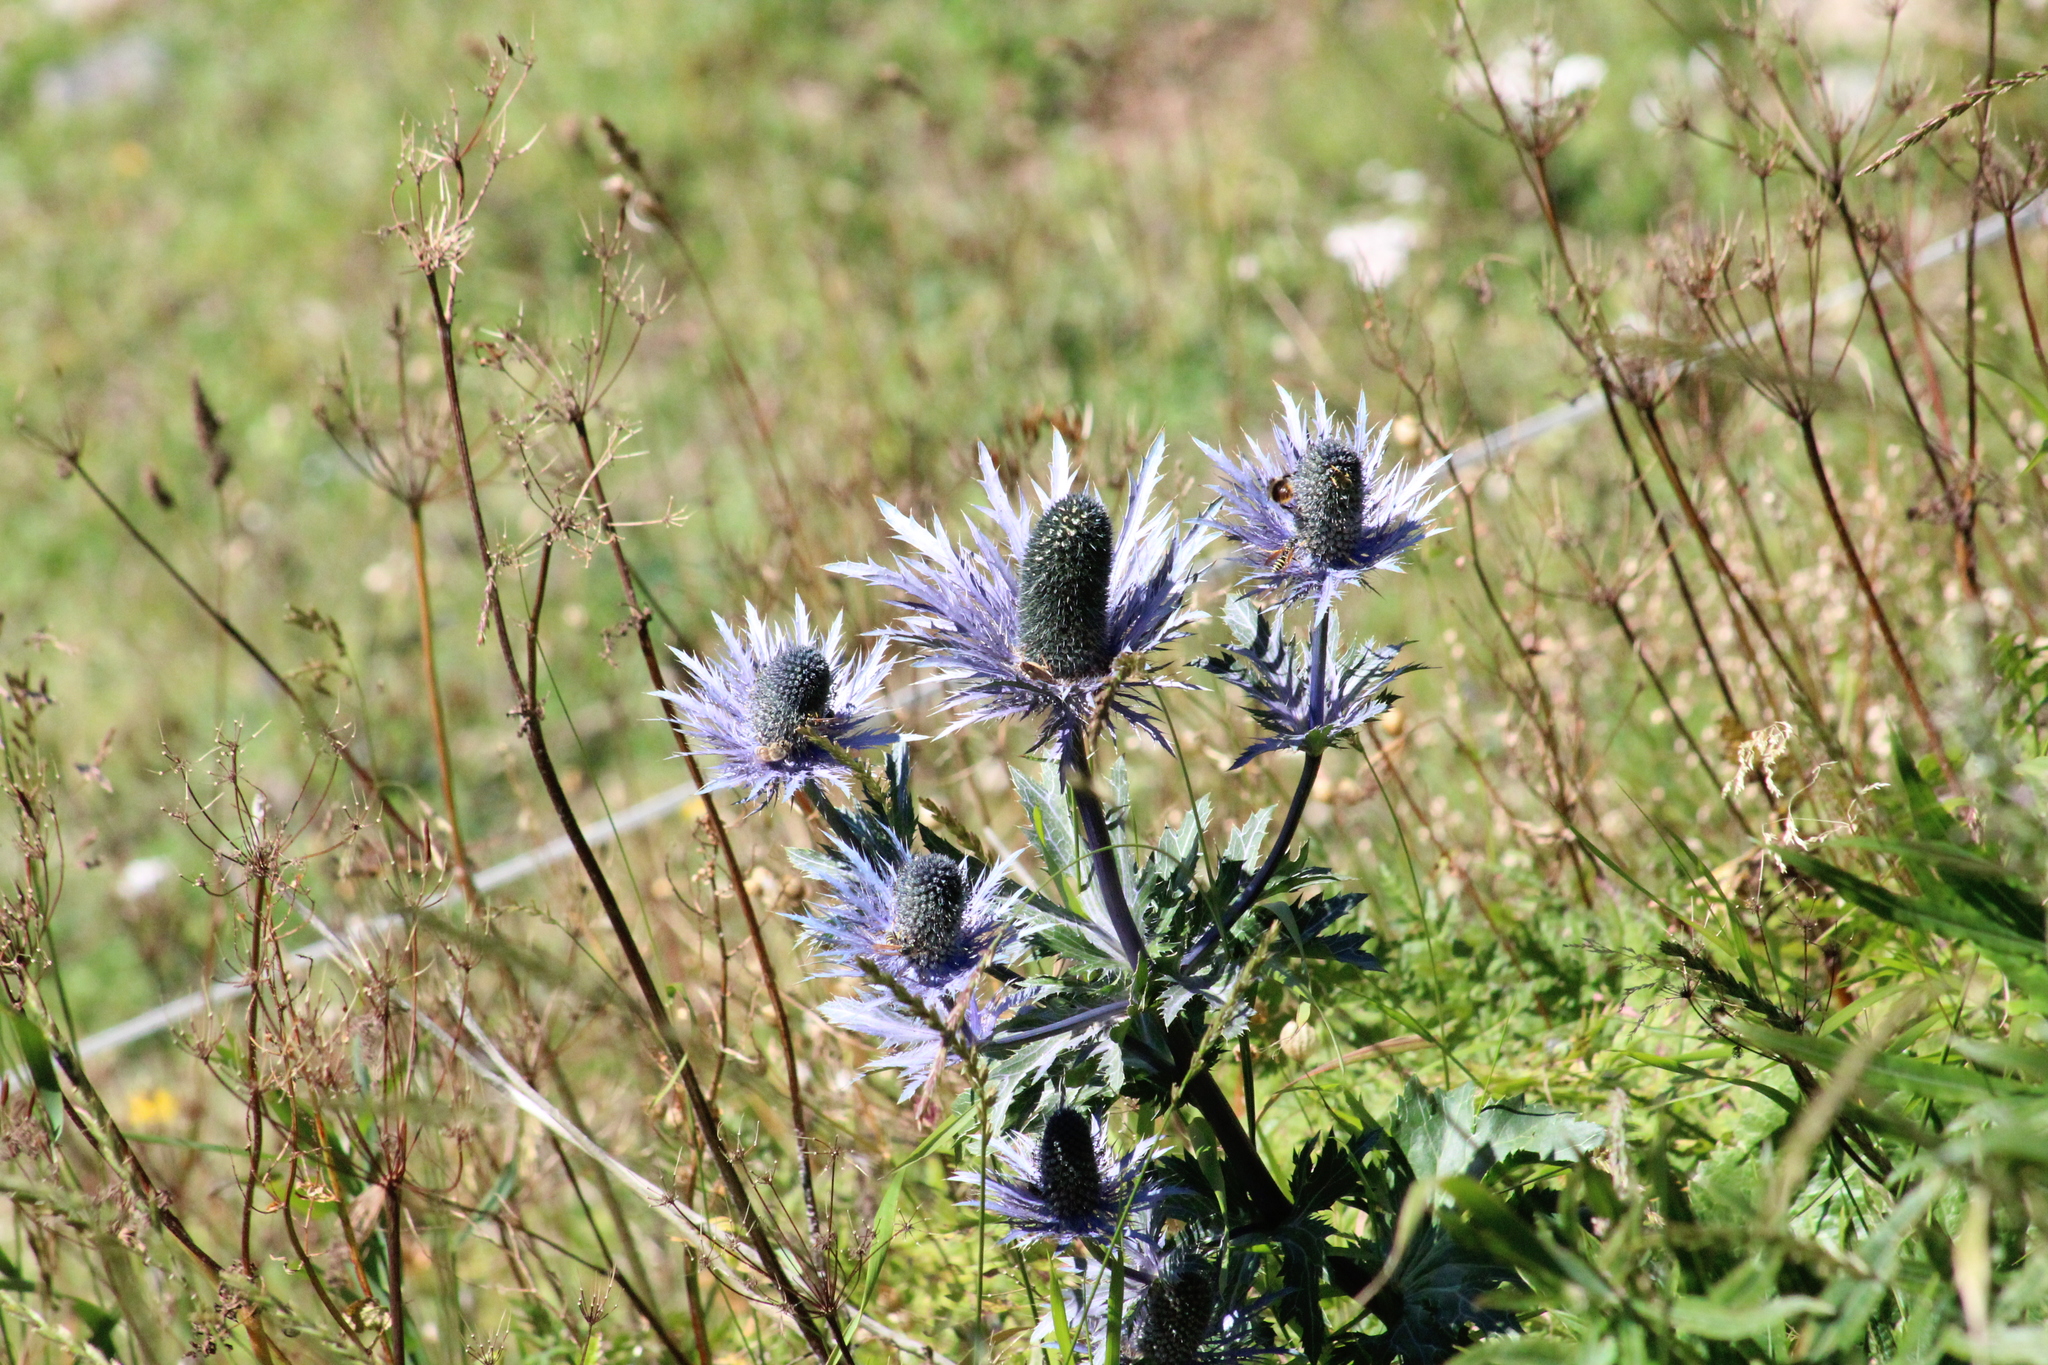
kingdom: Plantae
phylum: Tracheophyta
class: Magnoliopsida
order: Apiales
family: Apiaceae
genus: Eryngium
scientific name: Eryngium alpinum
